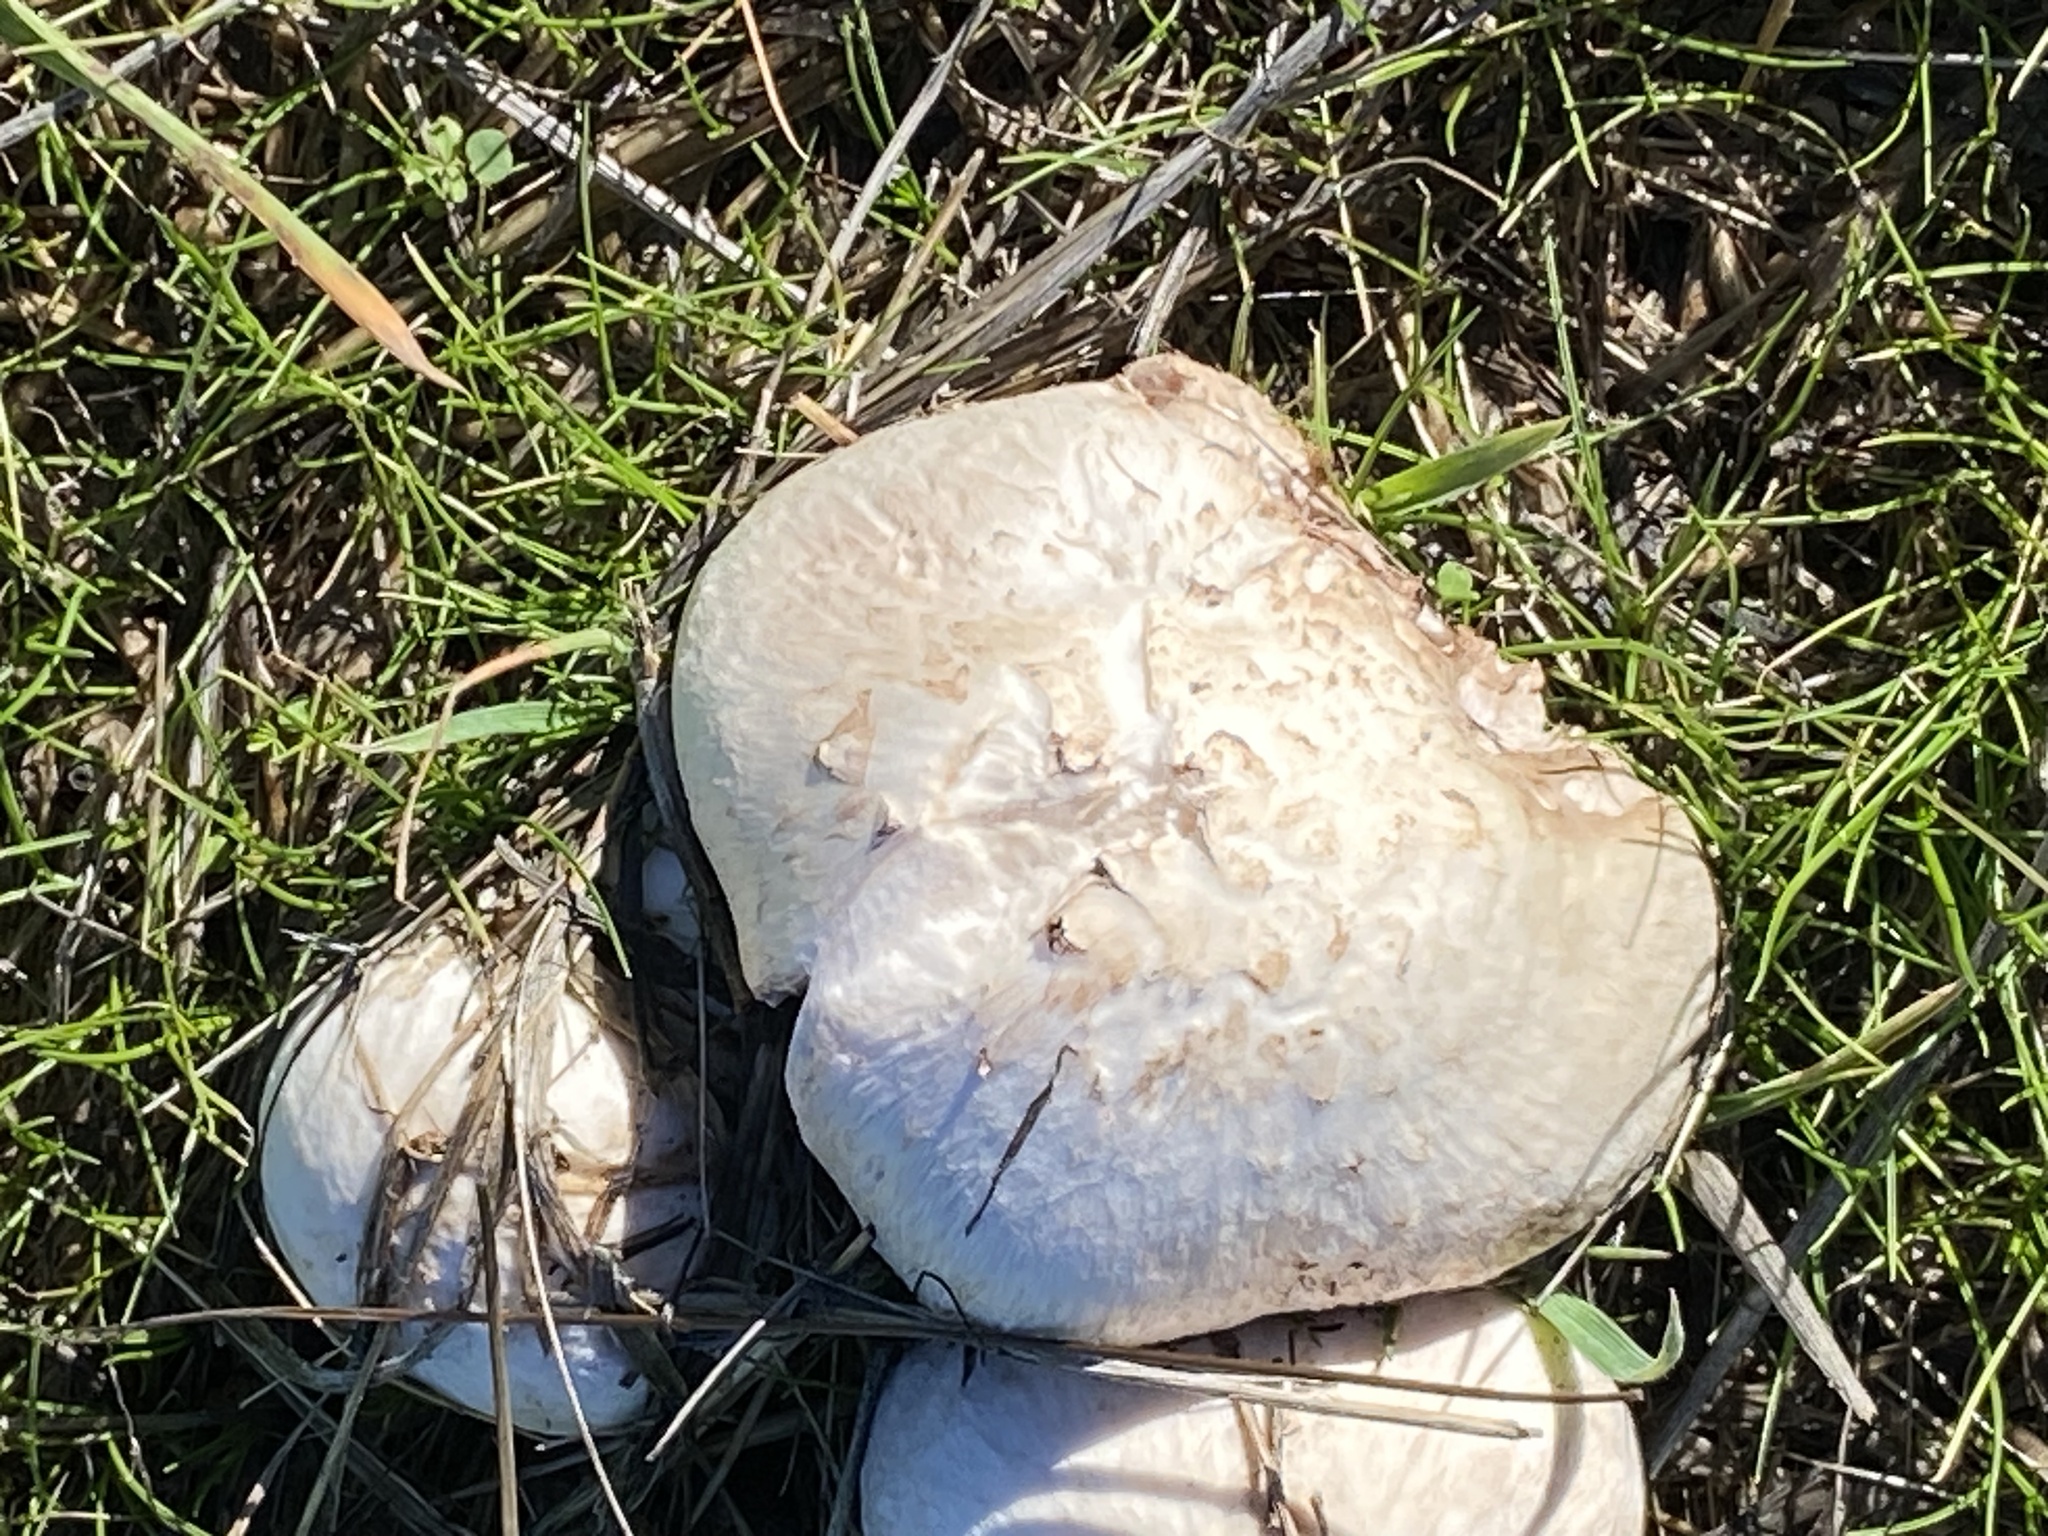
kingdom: Fungi
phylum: Basidiomycota
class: Agaricomycetes
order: Agaricales
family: Agaricaceae
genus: Agaricus
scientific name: Agaricus campestris
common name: Field mushroom
